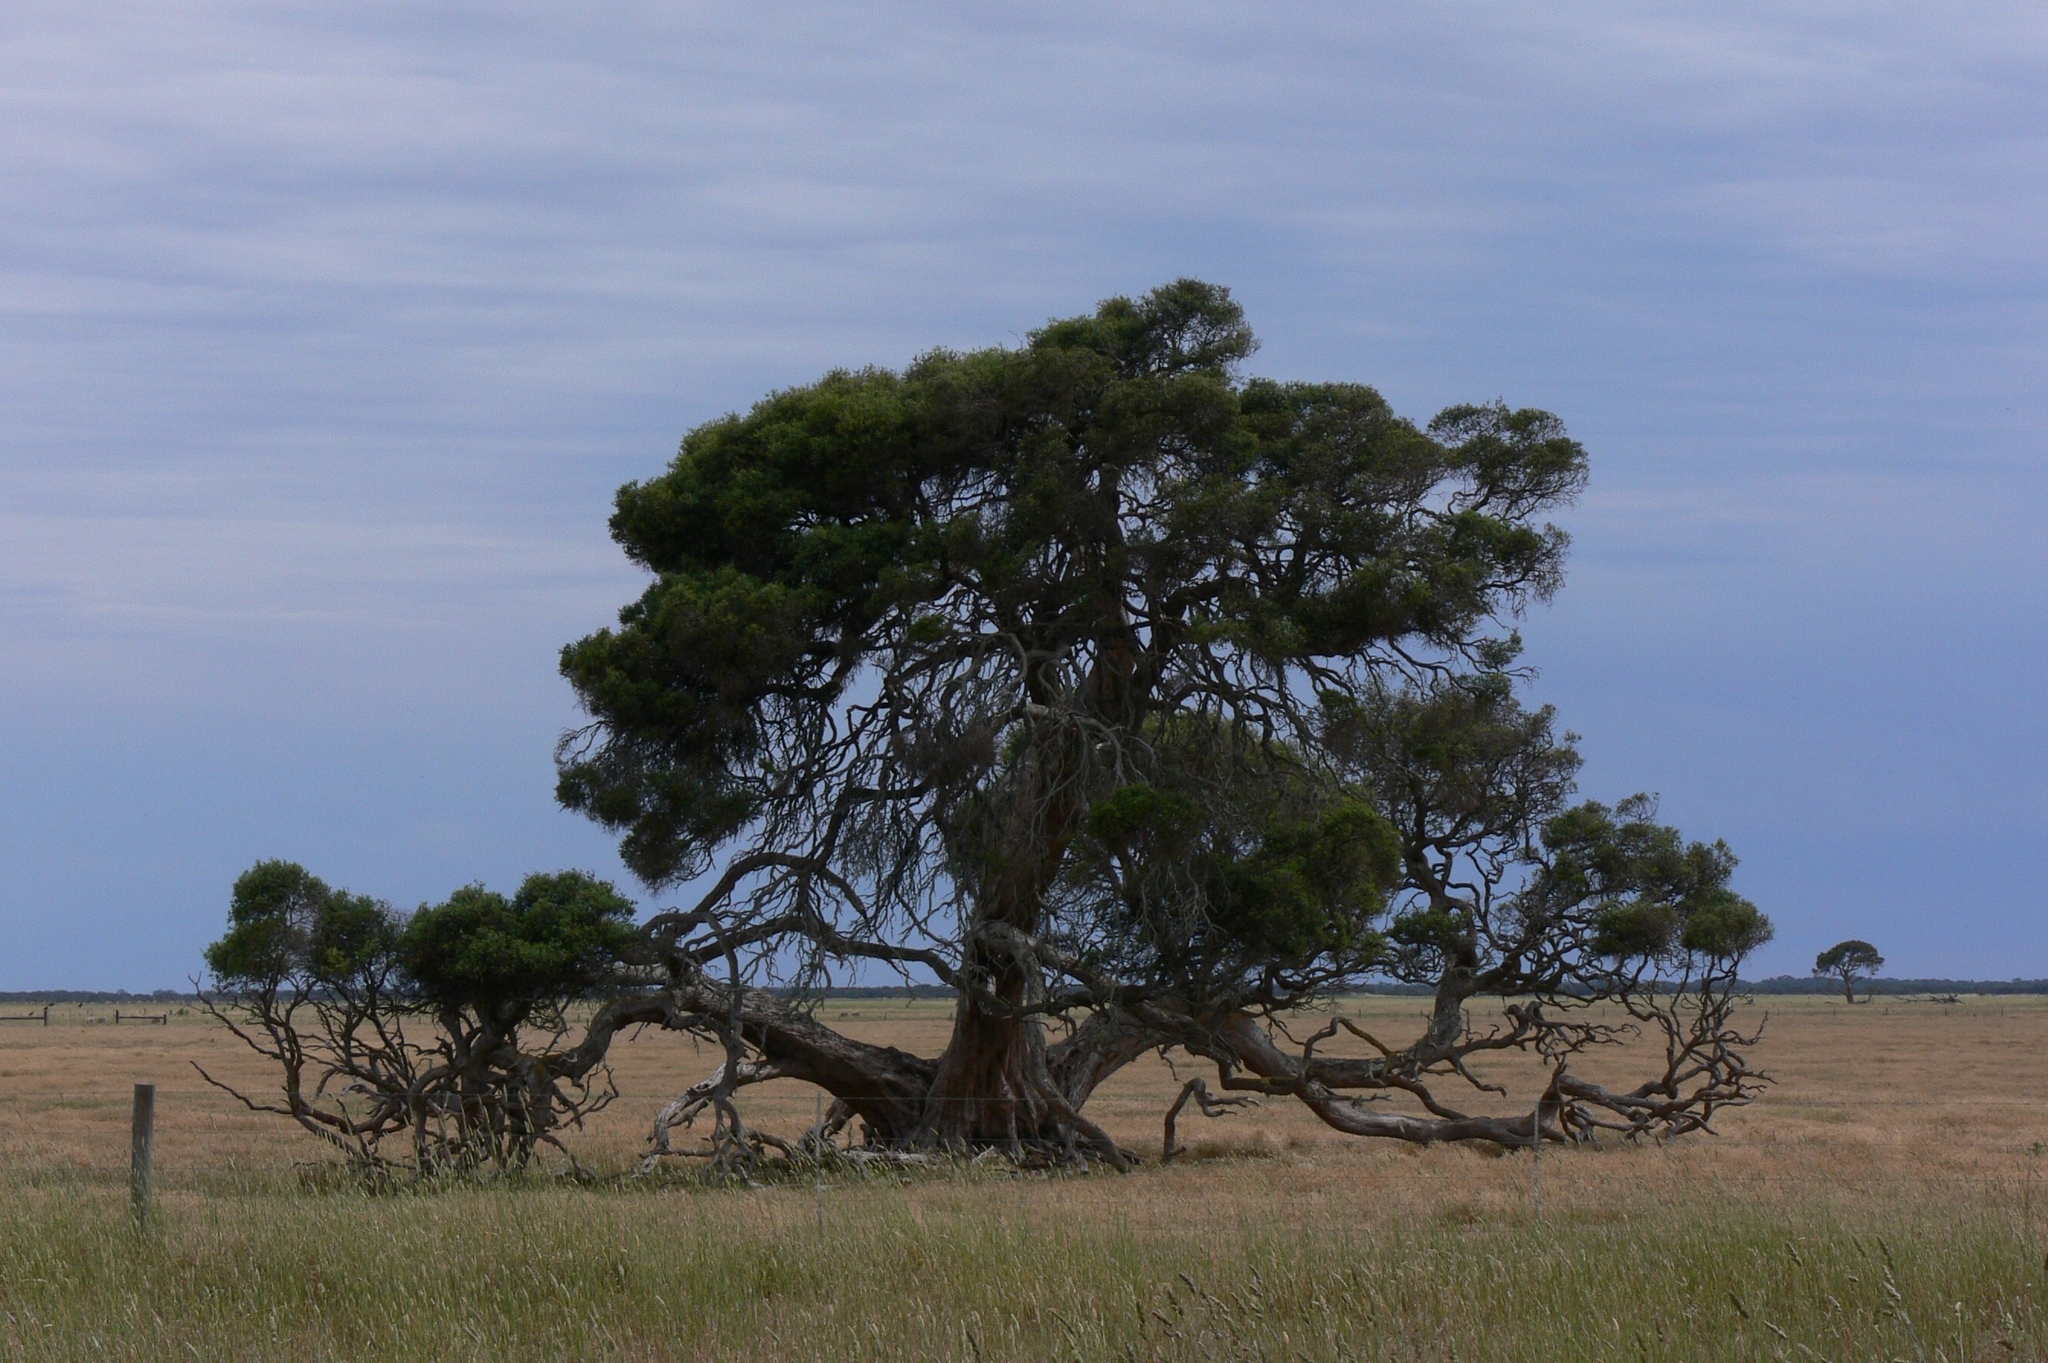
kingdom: Plantae
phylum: Tracheophyta
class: Magnoliopsida
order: Myrtales
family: Myrtaceae
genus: Eucalyptus
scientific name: Eucalyptus camaldulensis
